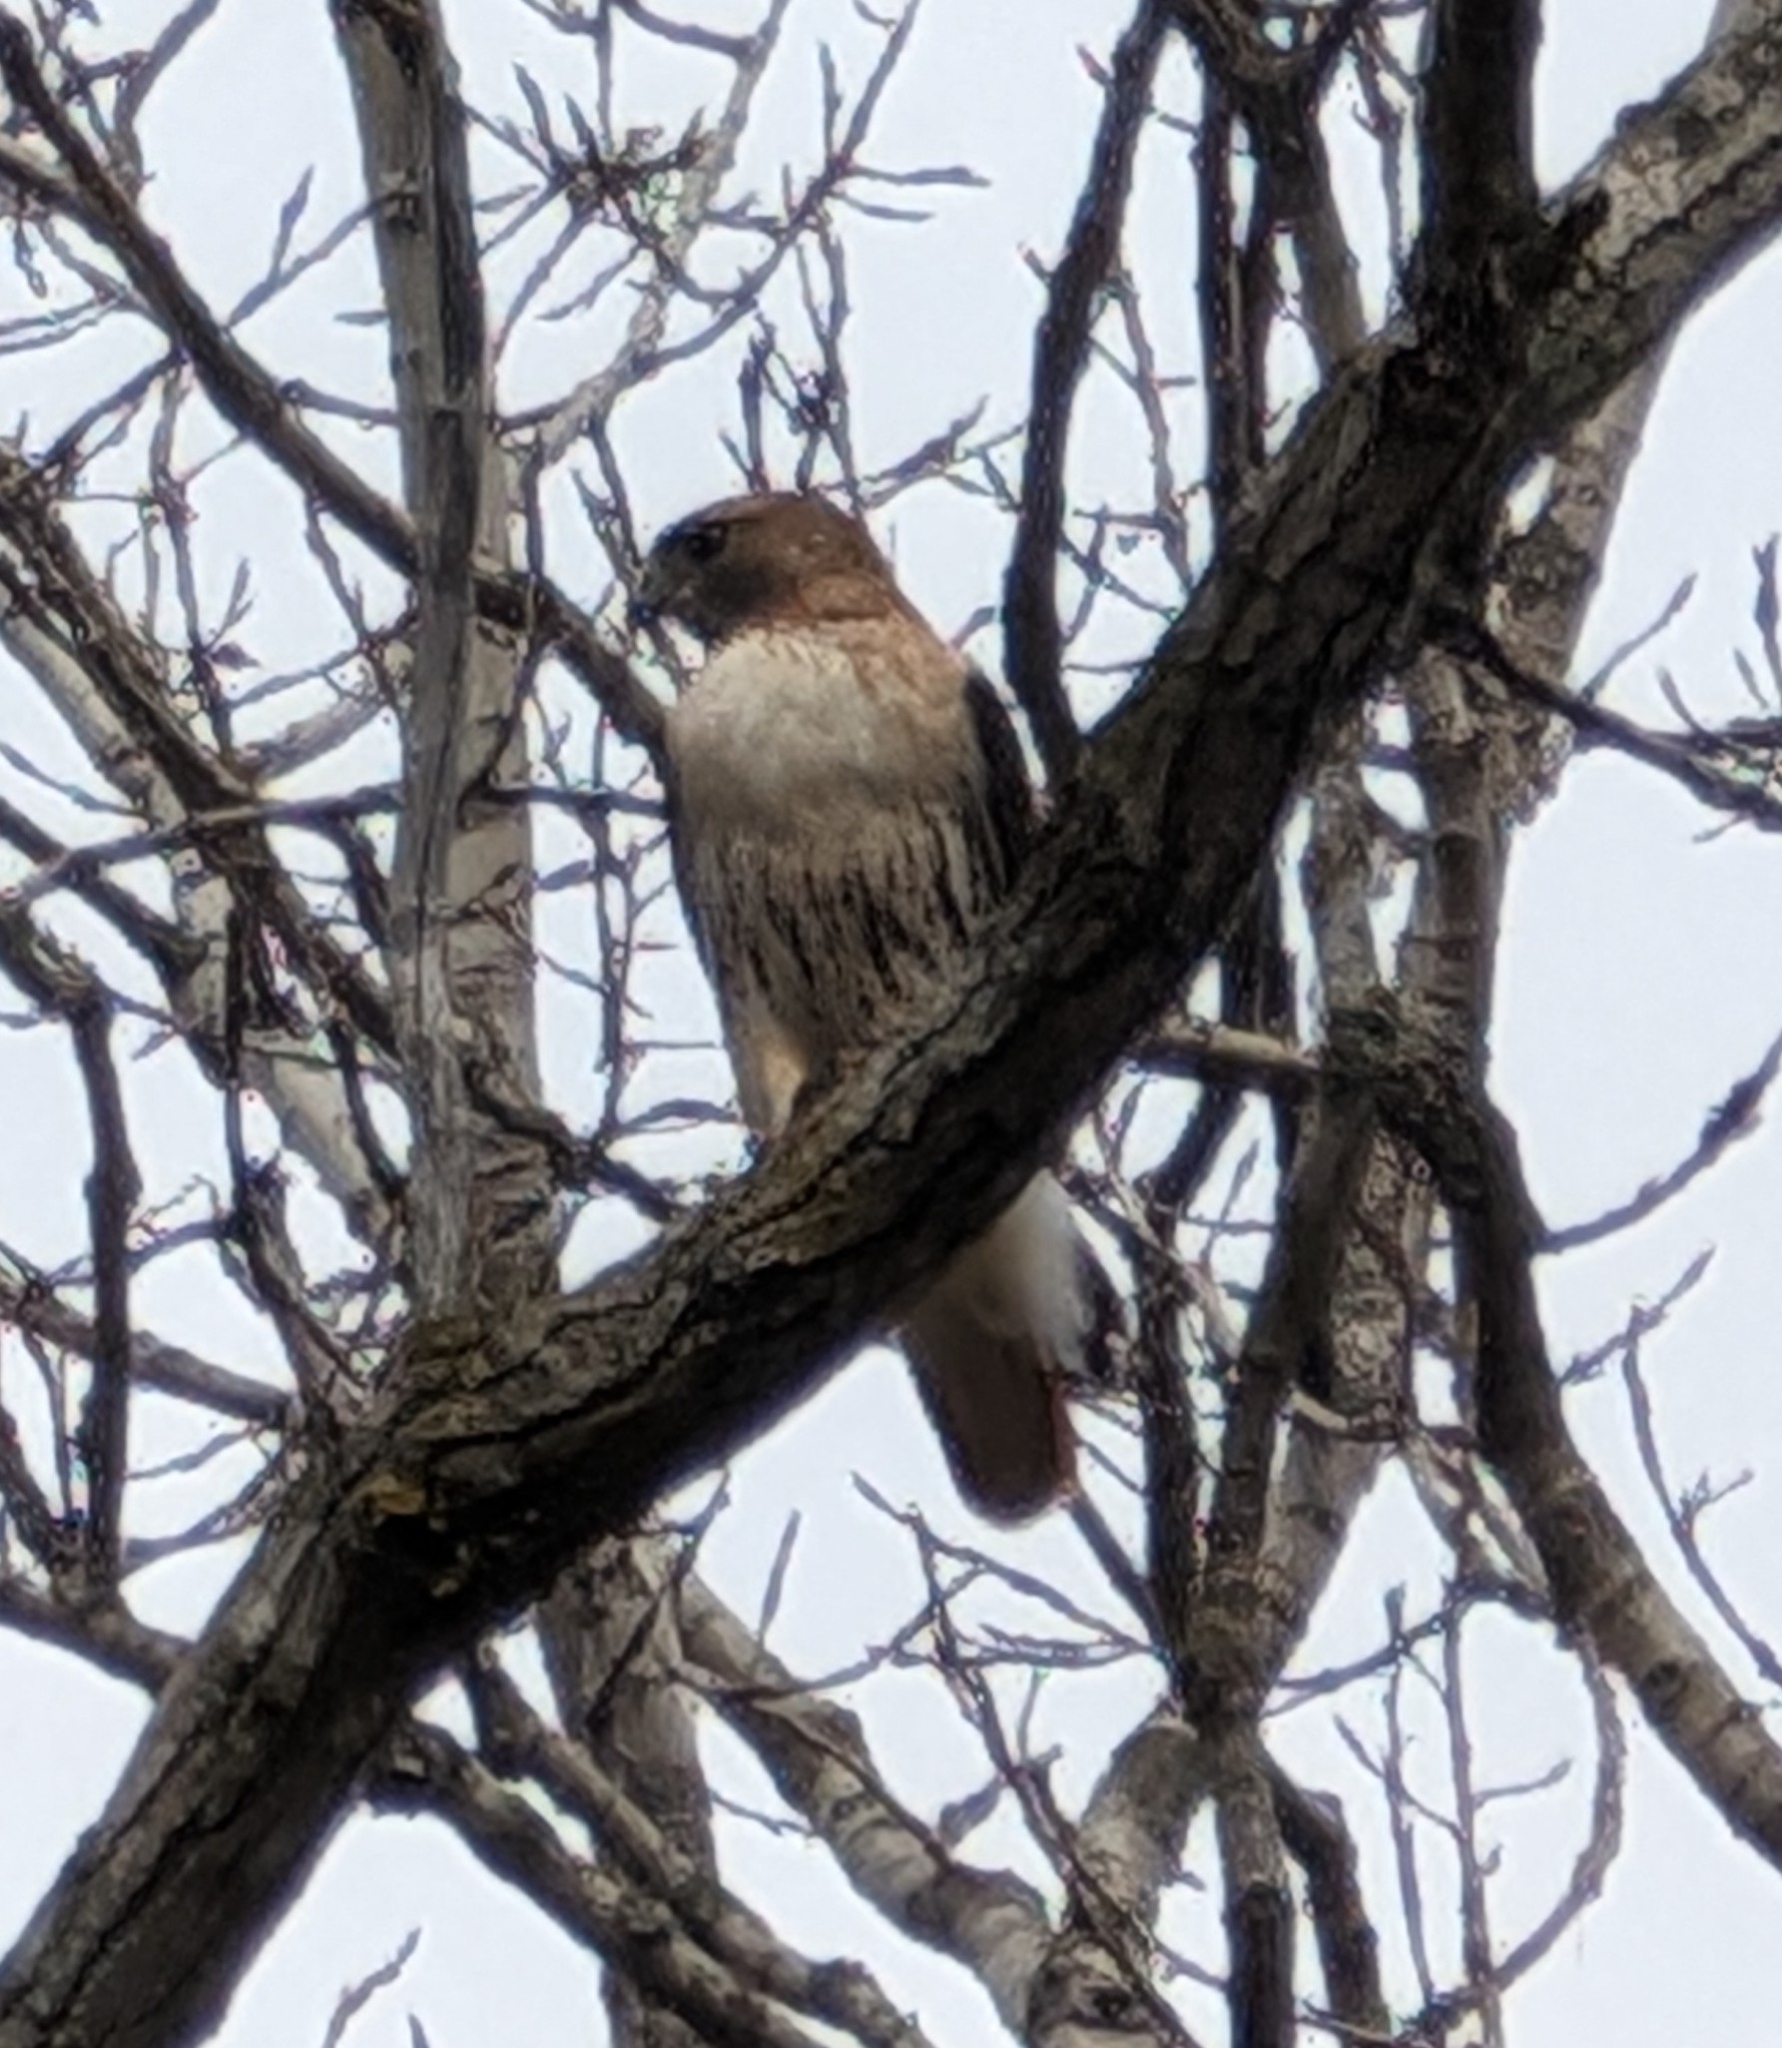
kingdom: Animalia
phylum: Chordata
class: Aves
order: Accipitriformes
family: Accipitridae
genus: Buteo
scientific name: Buteo jamaicensis
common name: Red-tailed hawk
